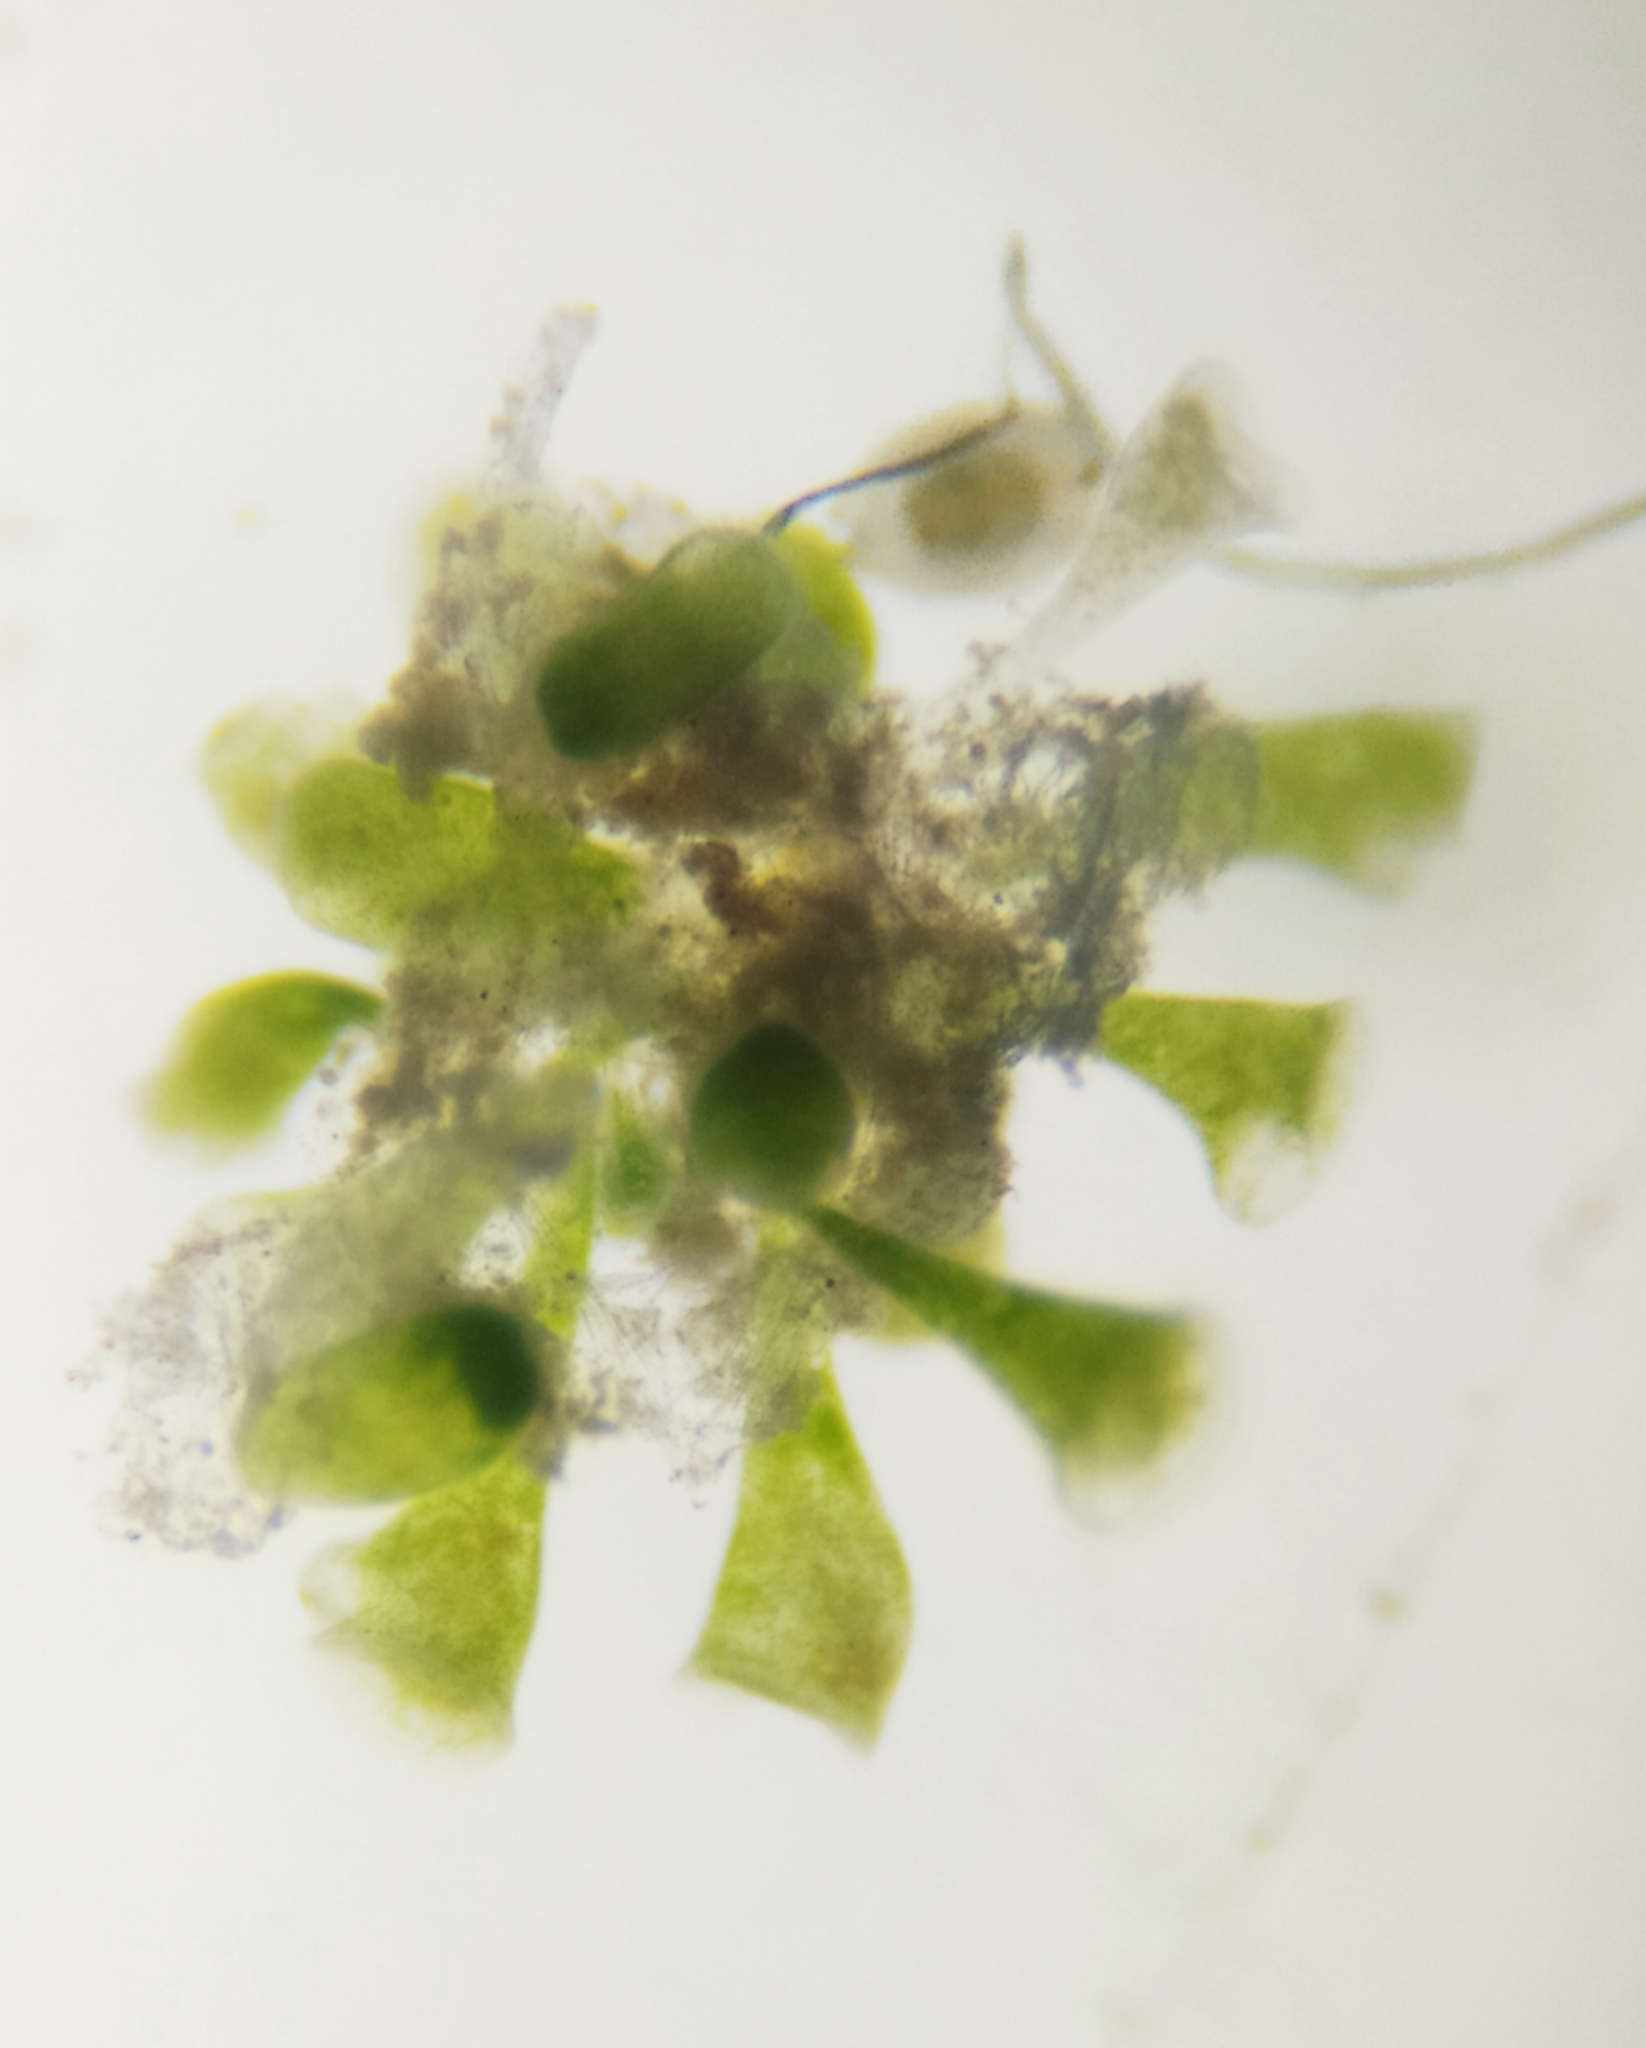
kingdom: Chromista
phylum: Ciliophora
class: Heterotrichea
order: Heterotrichida
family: Stentoridae
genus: Stentor
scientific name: Stentor polymorphus
